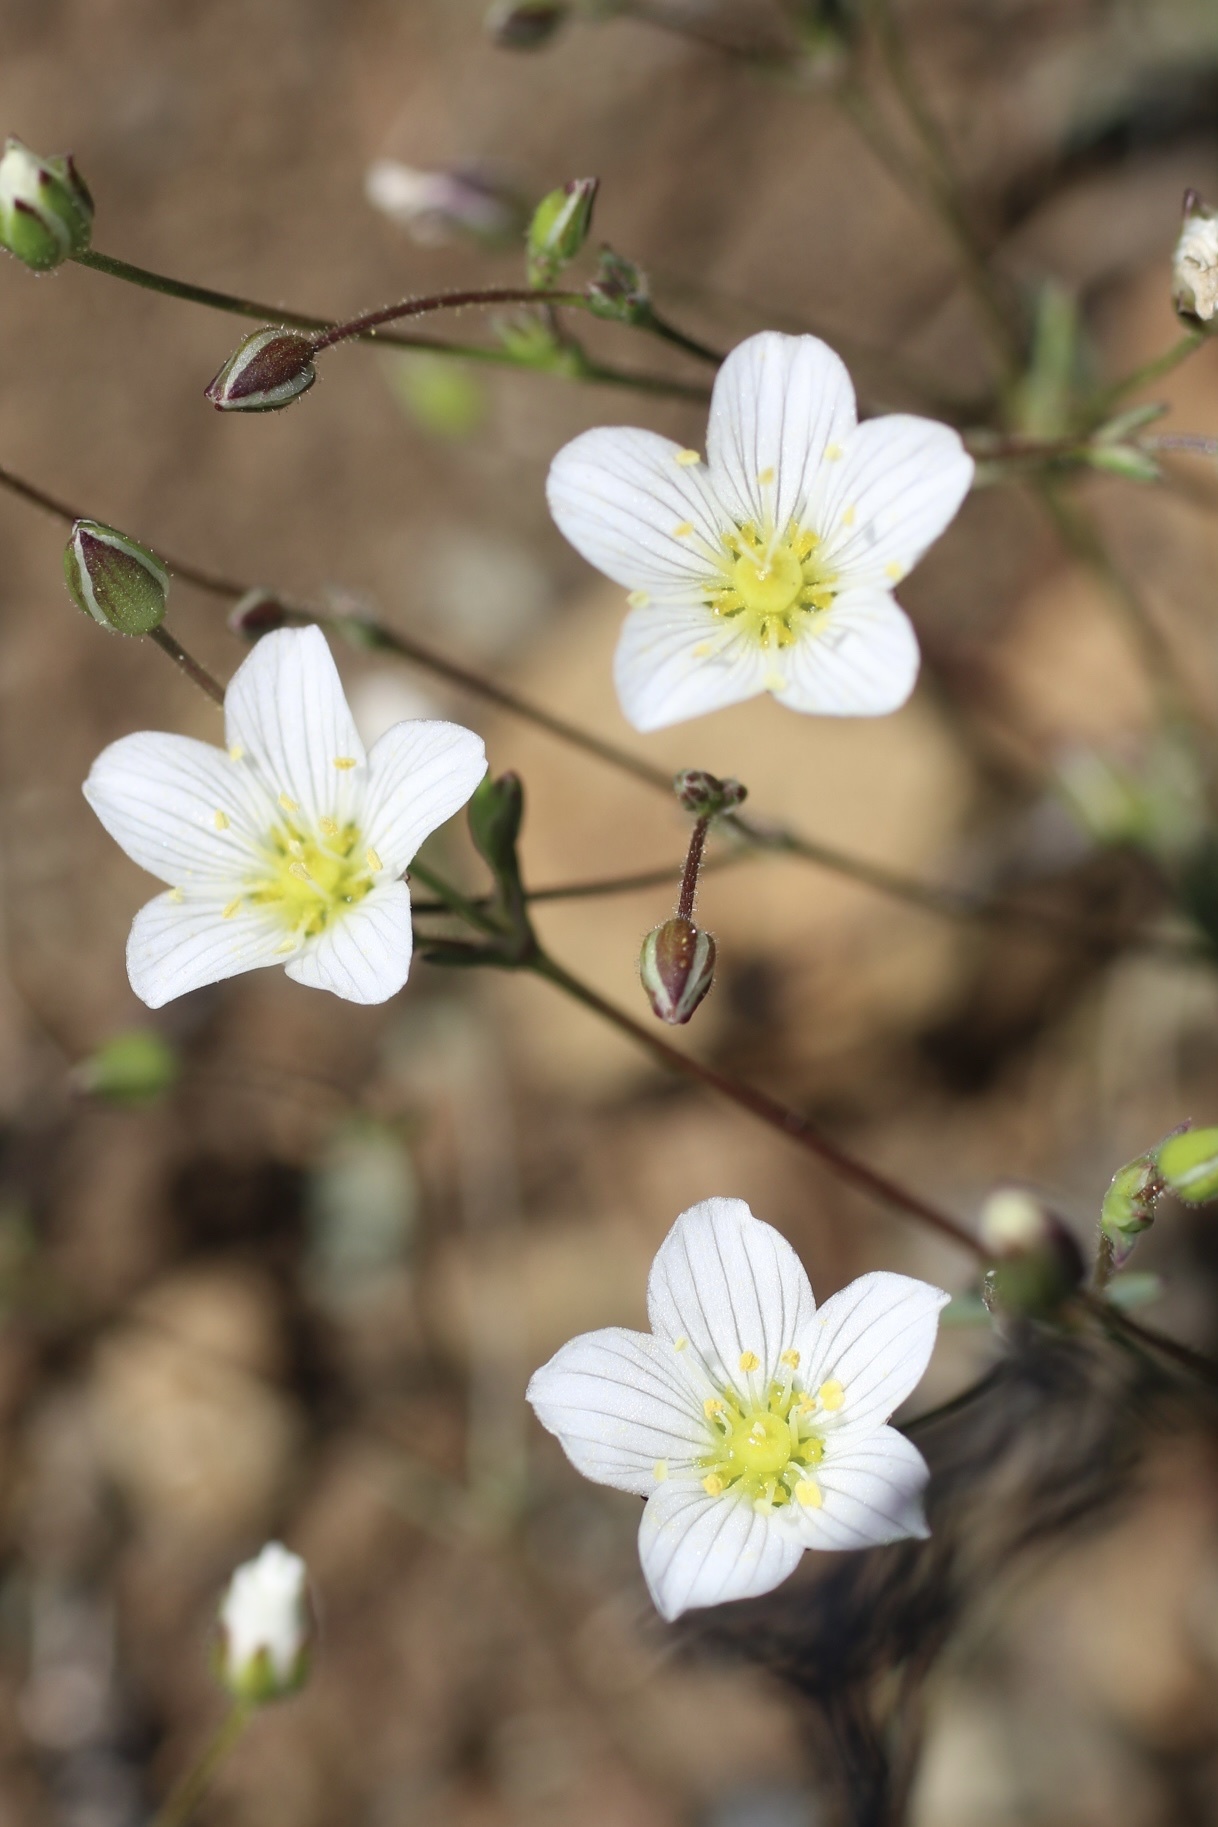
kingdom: Plantae
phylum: Tracheophyta
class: Magnoliopsida
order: Caryophyllales
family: Caryophyllaceae
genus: Sabulina
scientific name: Sabulina douglasii
